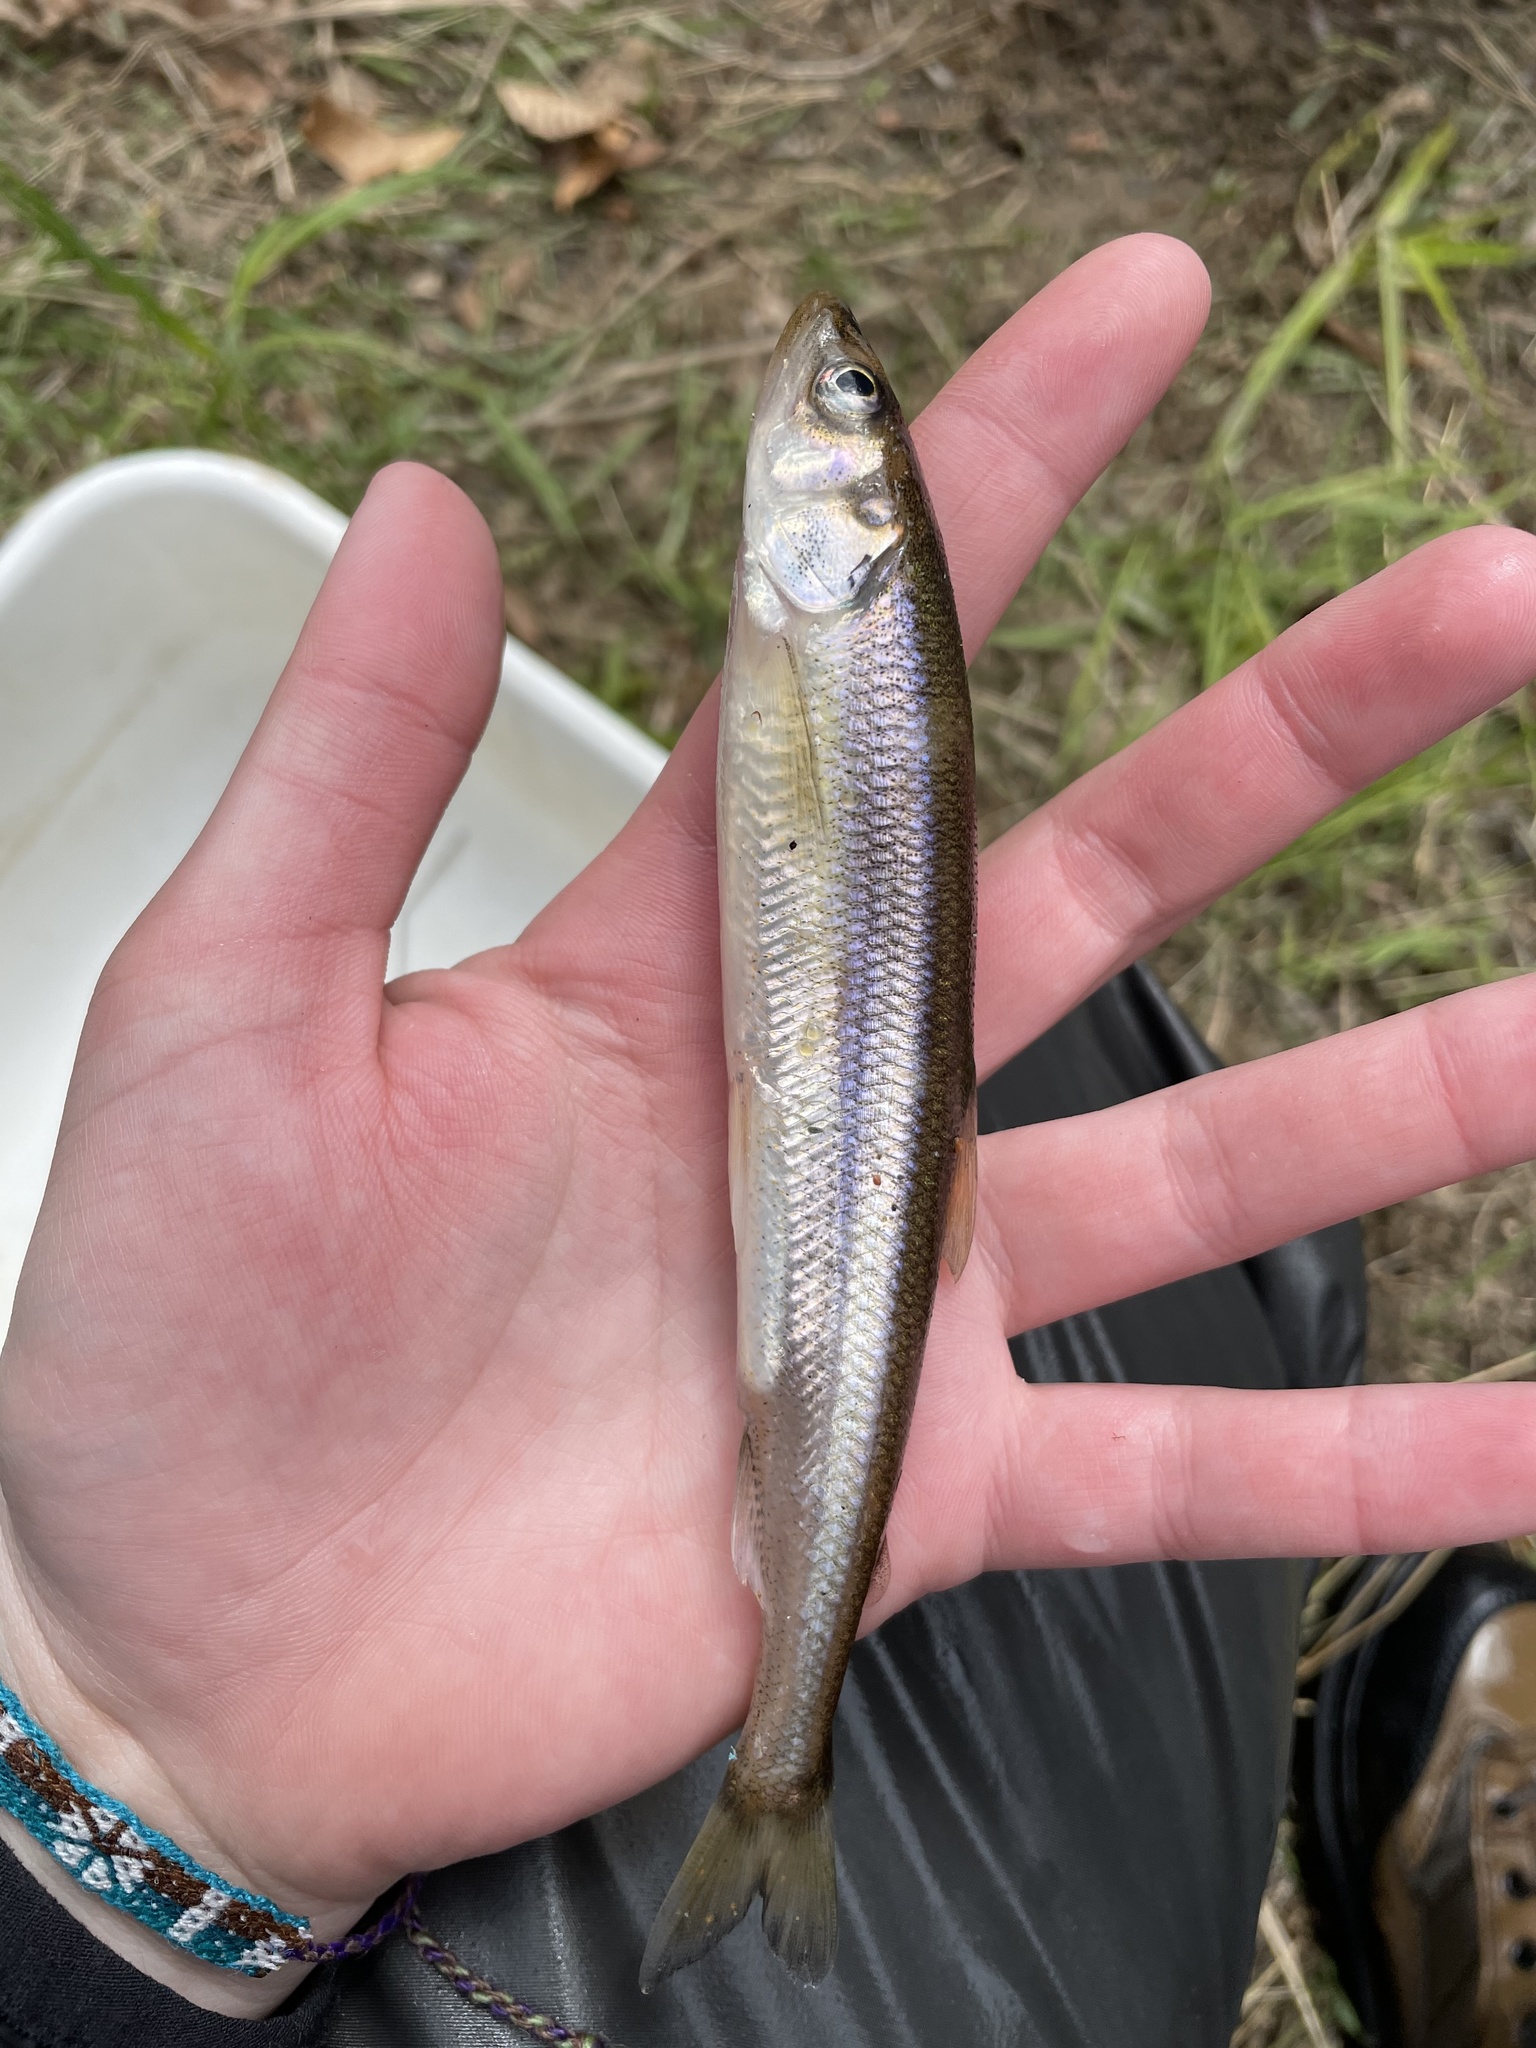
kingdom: Animalia
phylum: Chordata
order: Osmeriformes
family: Osmeridae
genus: Osmerus
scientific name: Osmerus mordax
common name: Rainbow smelt
